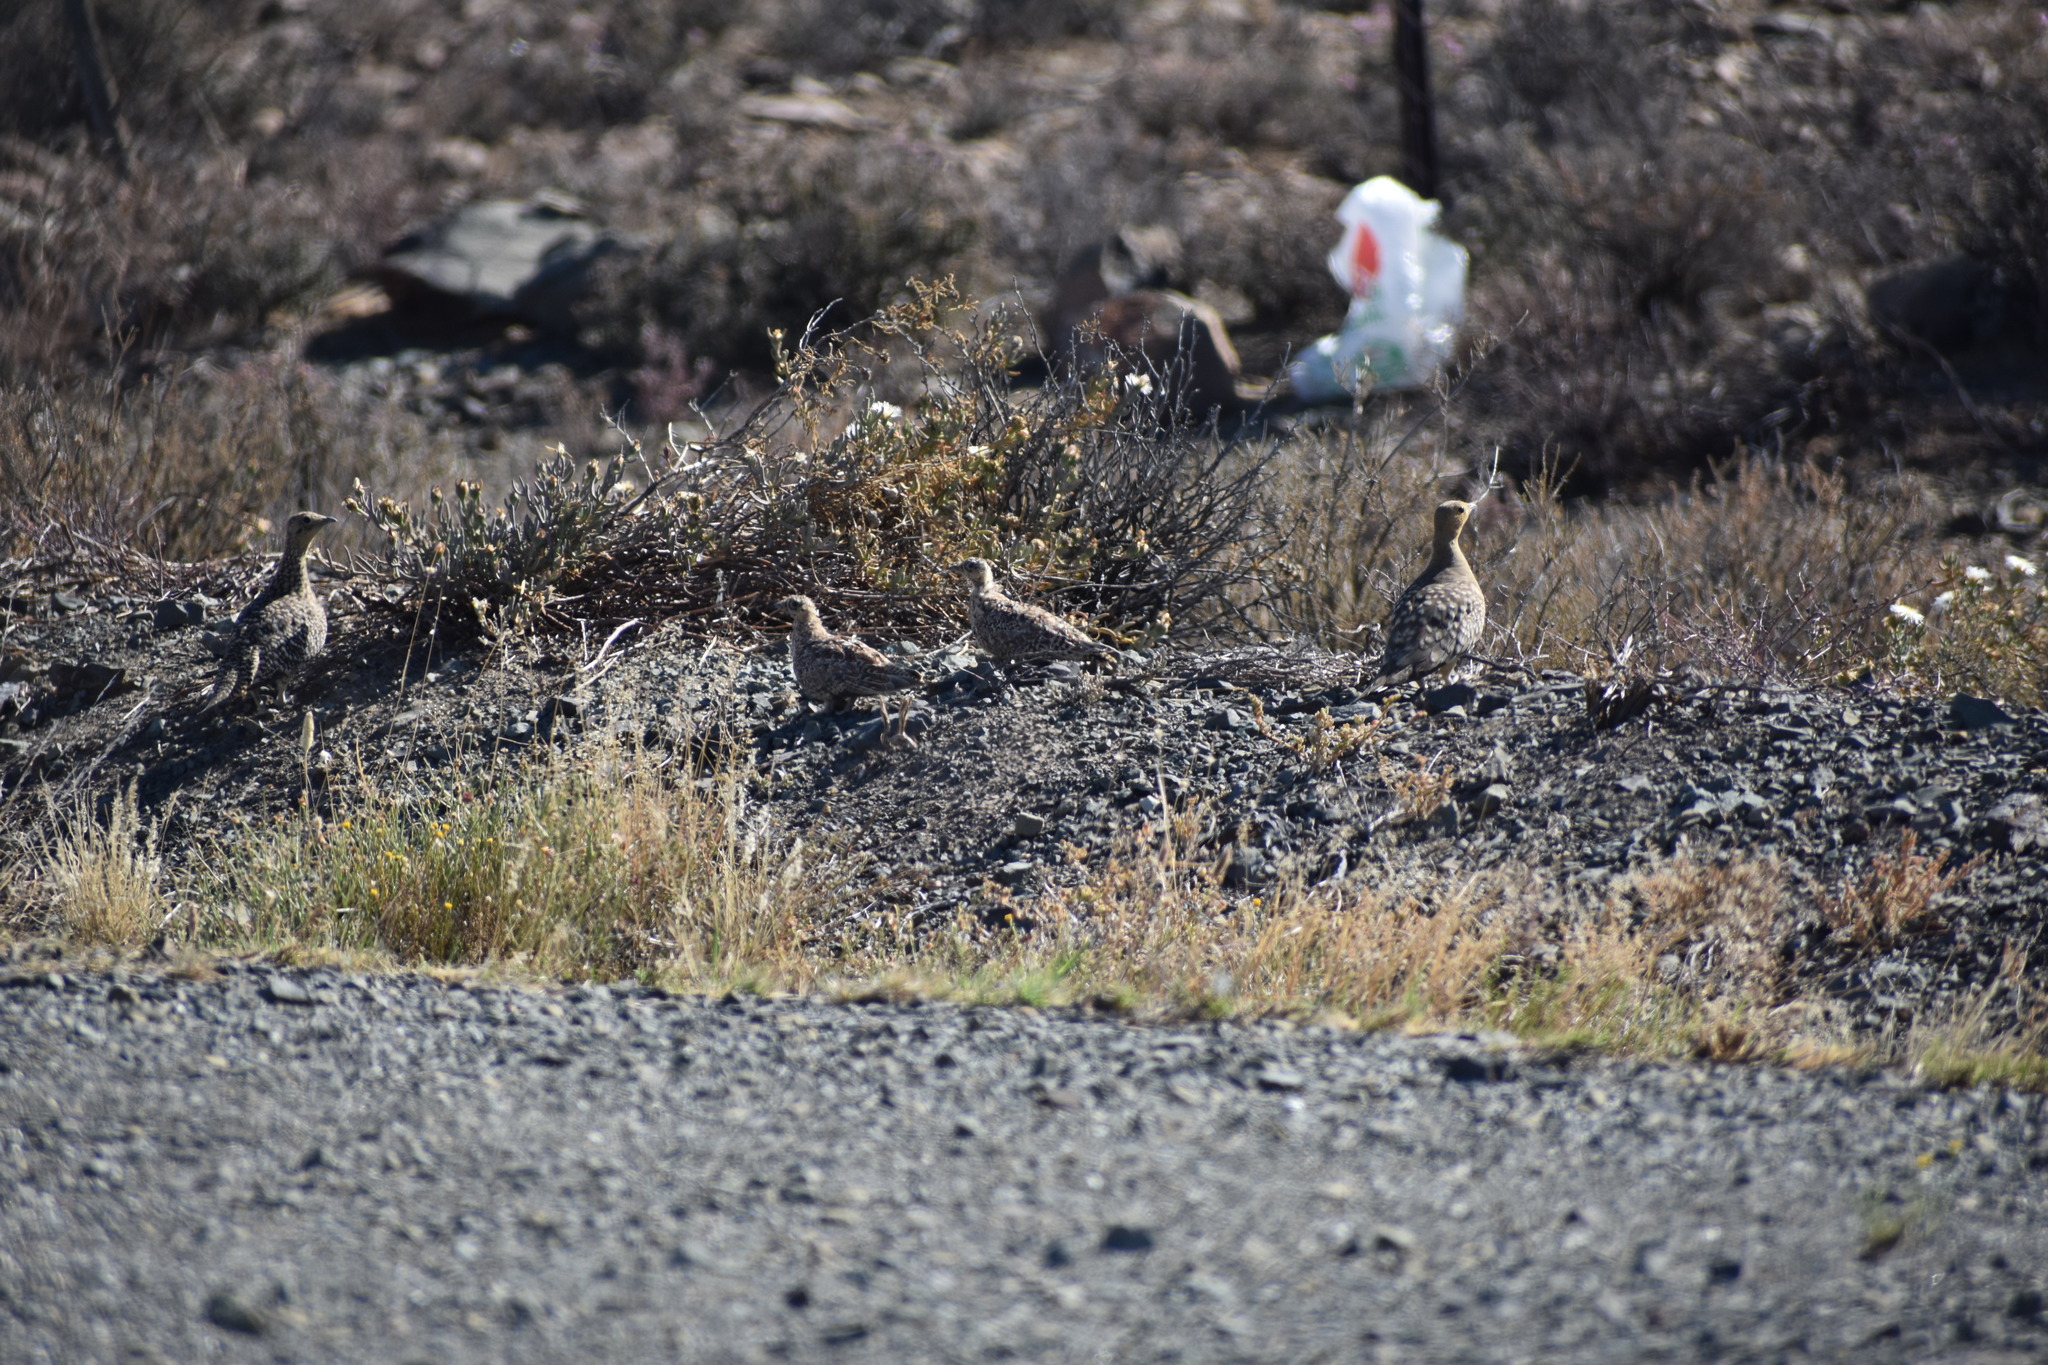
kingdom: Animalia
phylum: Chordata
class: Aves
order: Pteroclidiformes
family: Pteroclididae
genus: Pterocles
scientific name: Pterocles namaqua
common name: Namaqua sandgrouse
